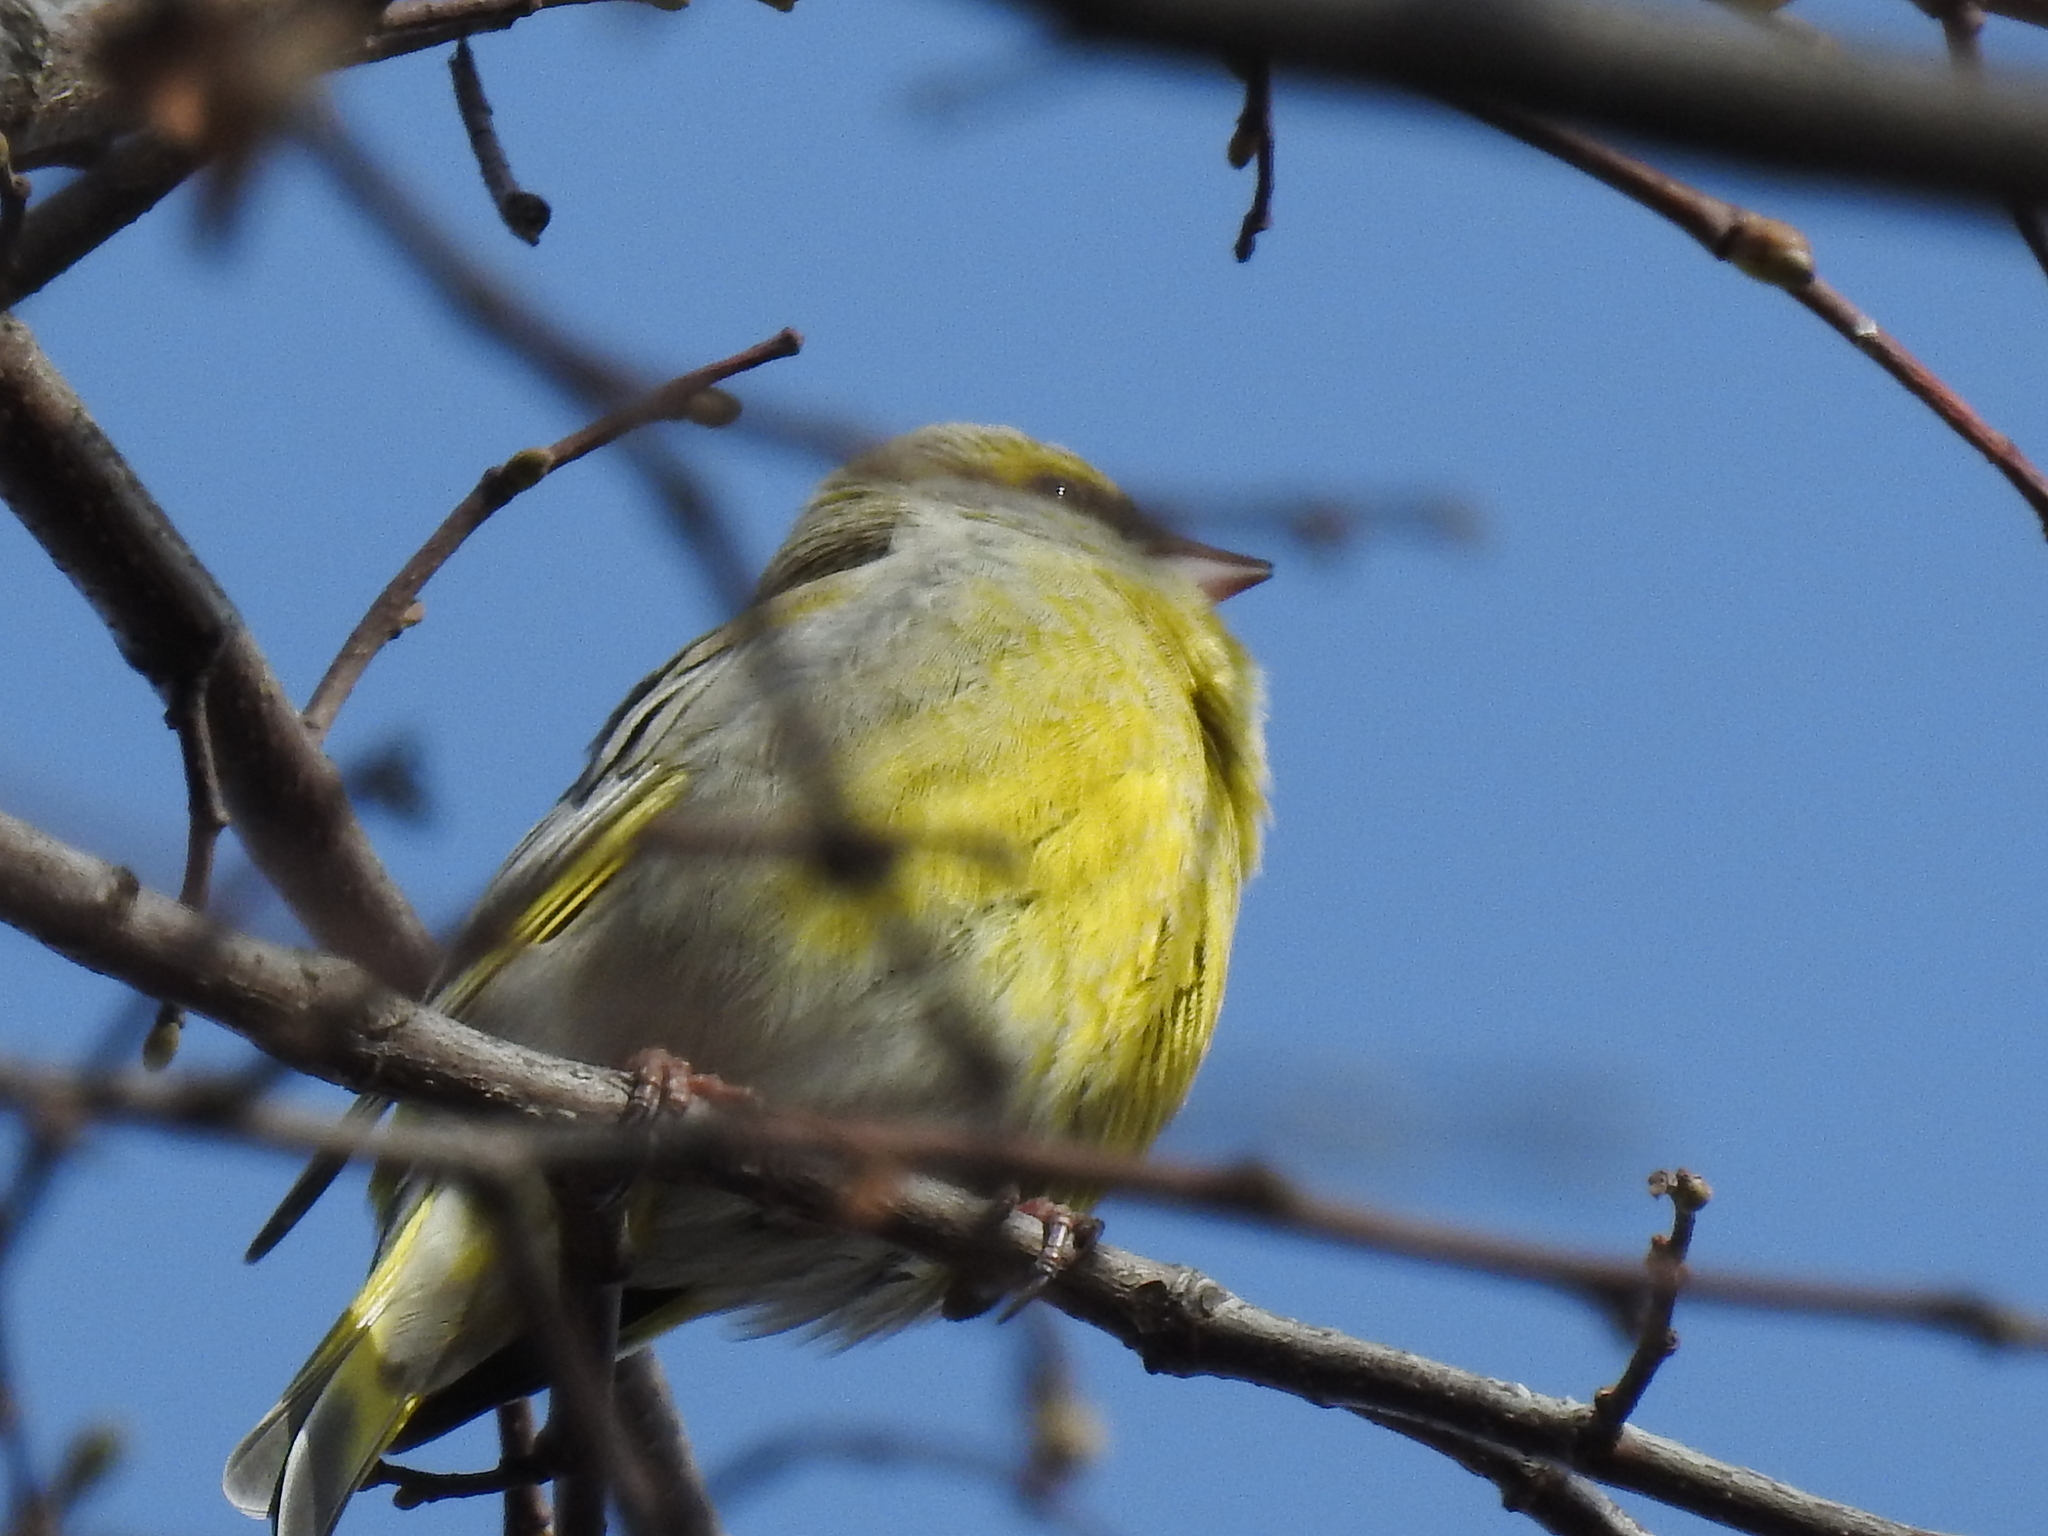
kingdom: Plantae
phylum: Tracheophyta
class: Liliopsida
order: Poales
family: Poaceae
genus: Chloris
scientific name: Chloris chloris
